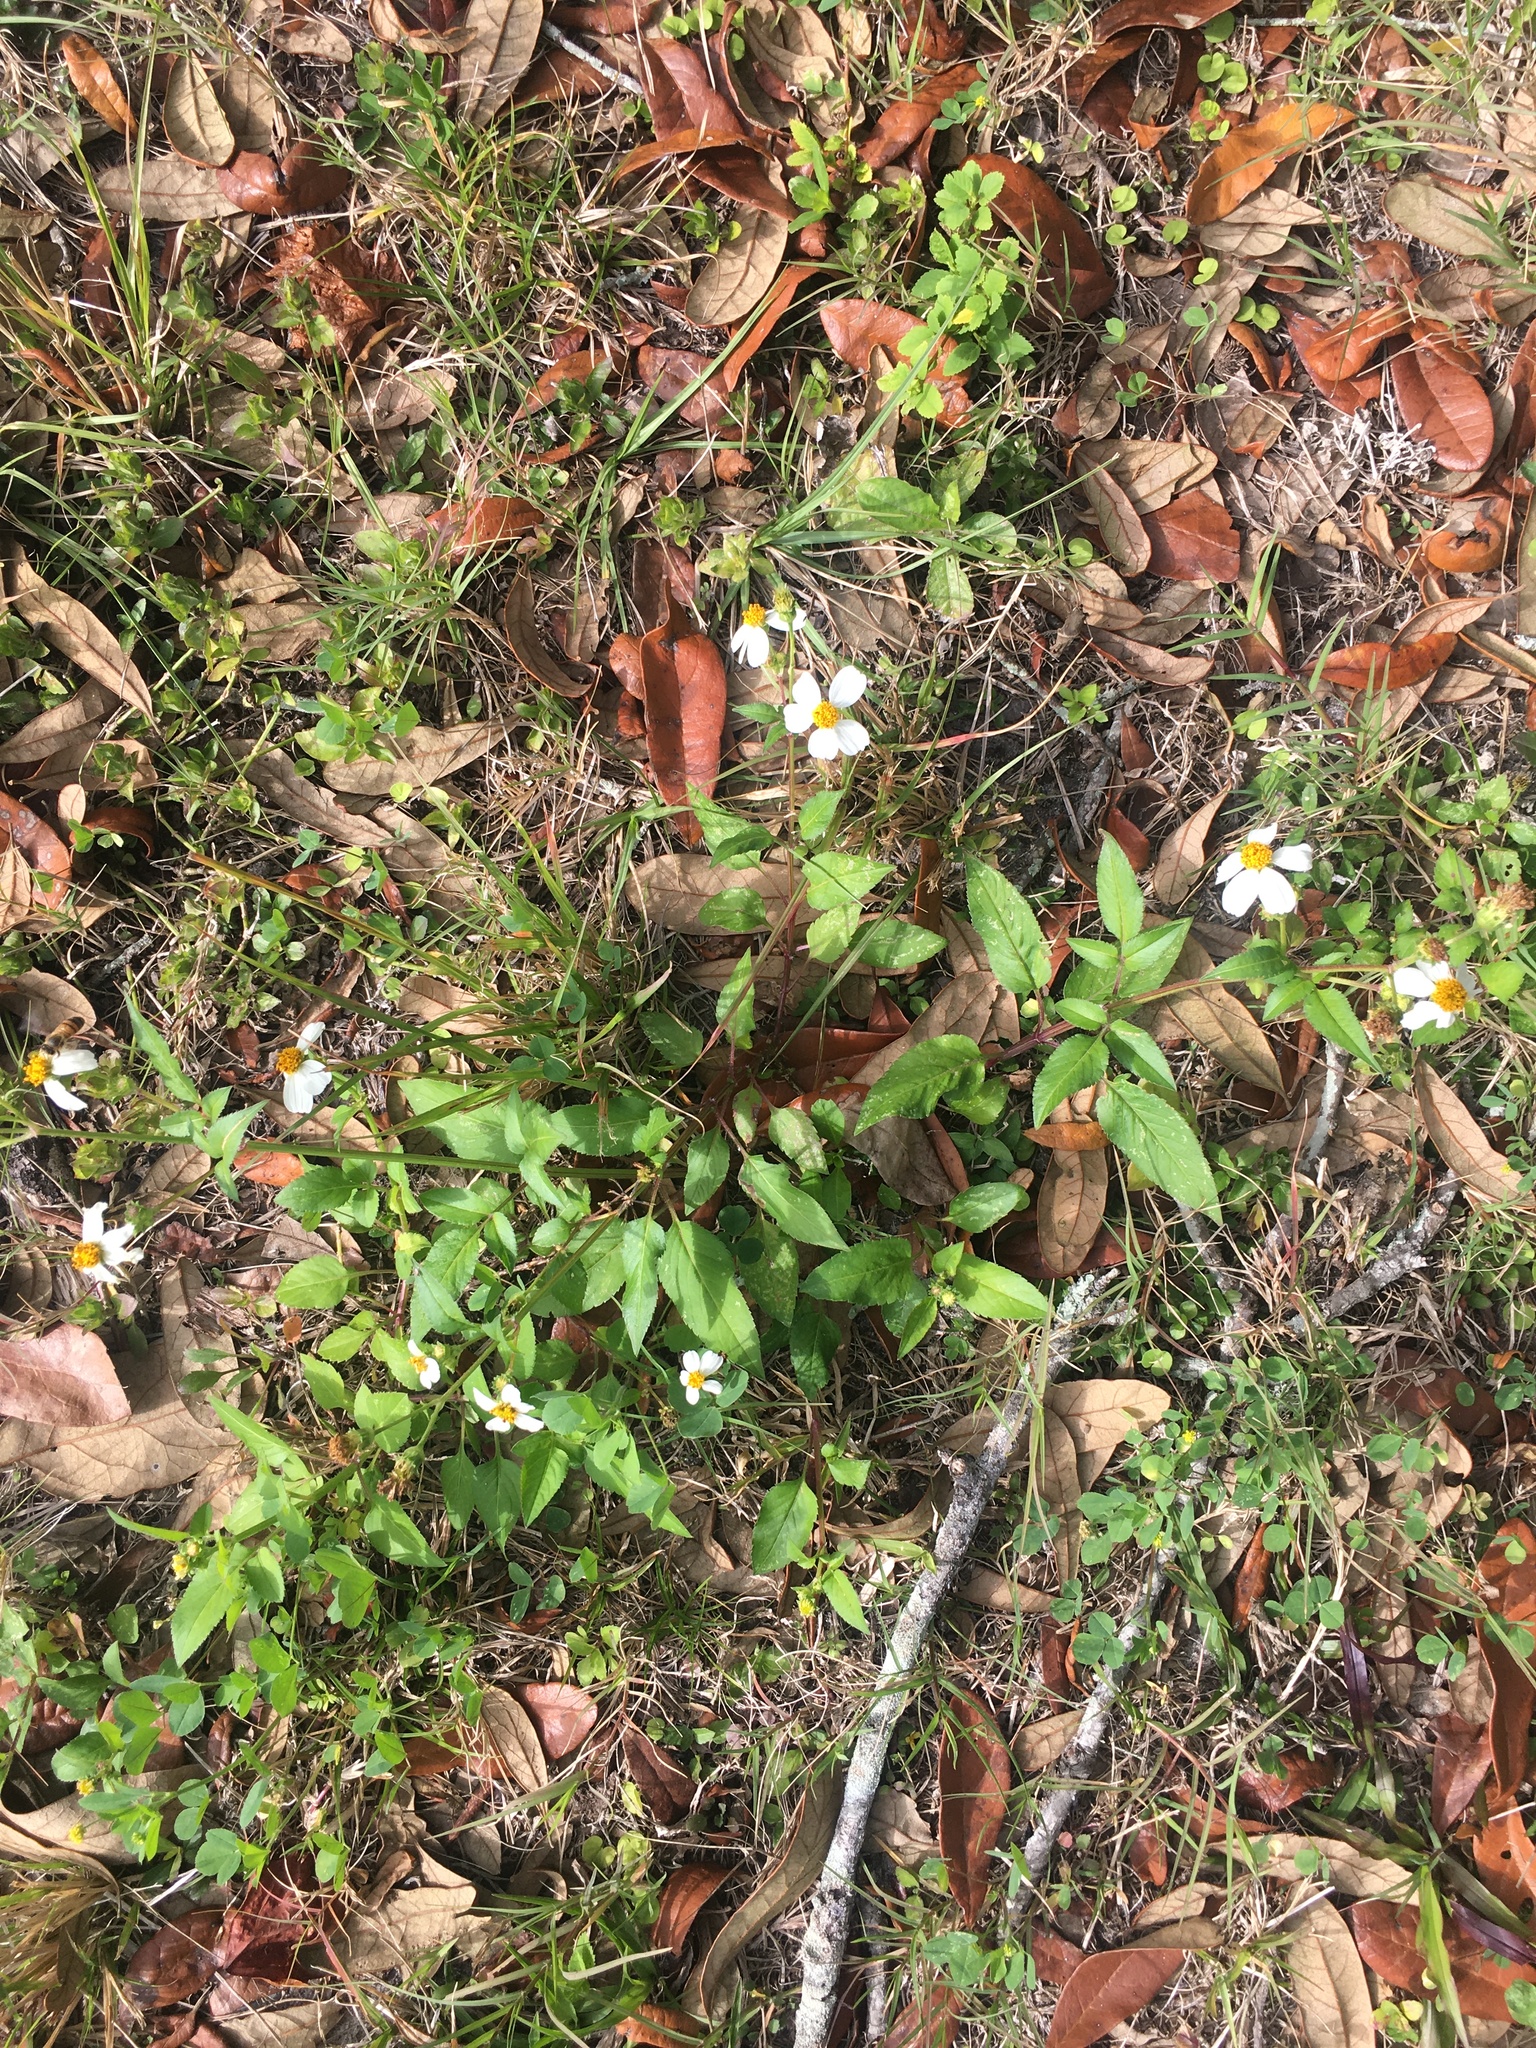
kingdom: Plantae
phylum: Tracheophyta
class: Magnoliopsida
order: Asterales
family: Asteraceae
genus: Bidens
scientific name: Bidens alba
